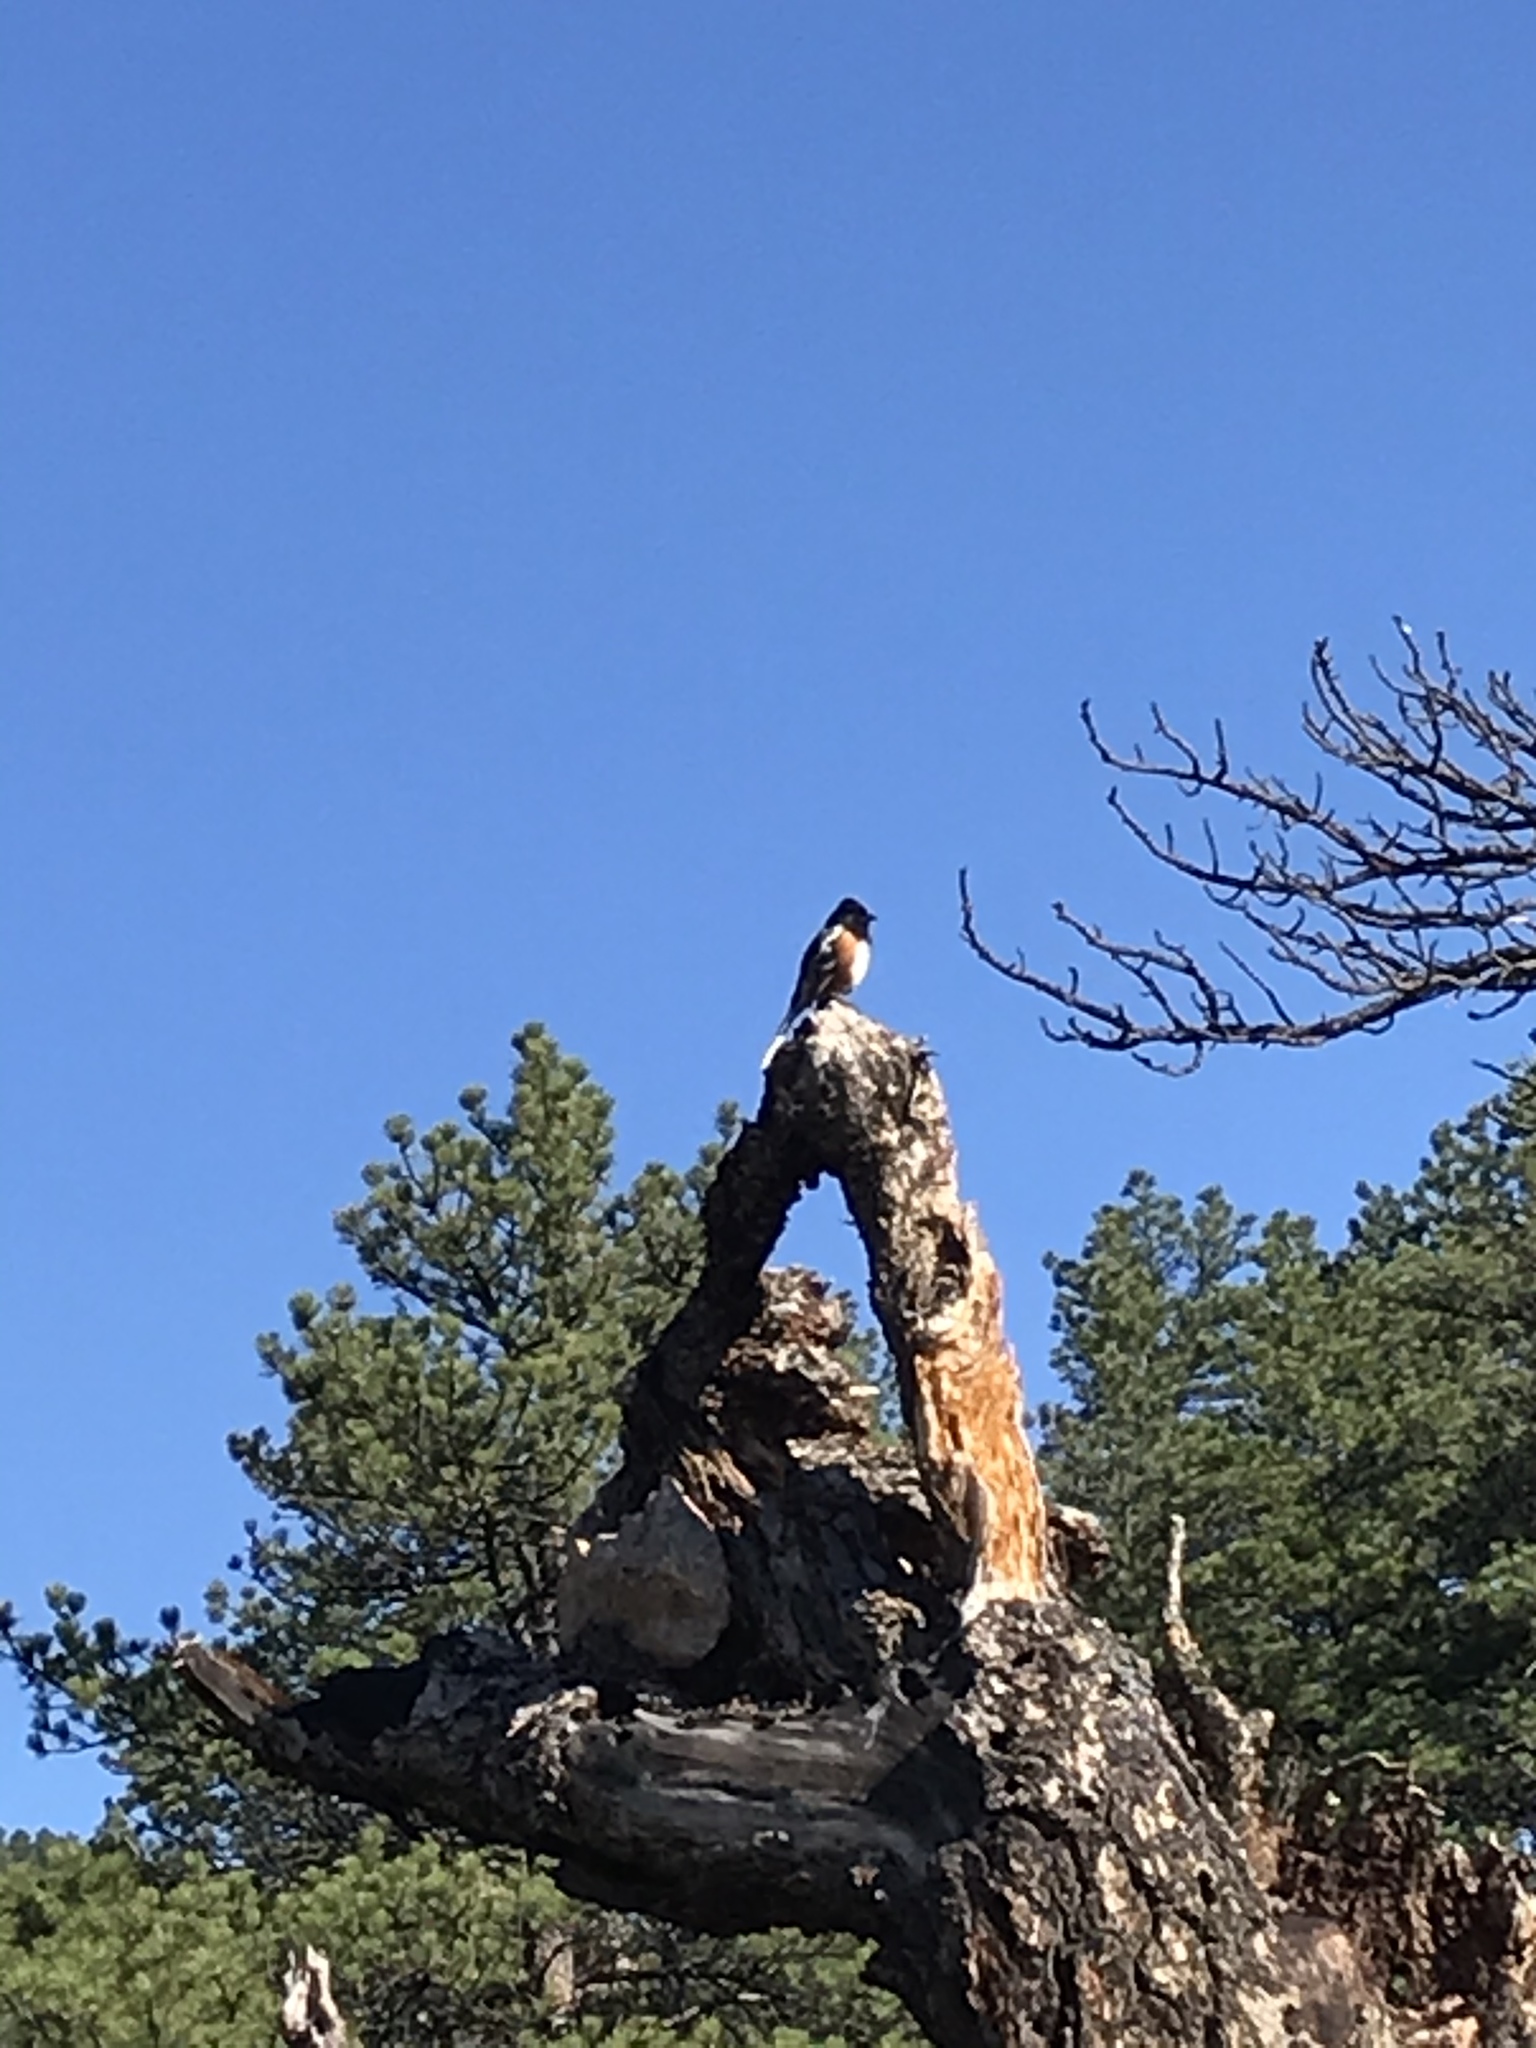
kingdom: Animalia
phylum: Chordata
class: Aves
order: Passeriformes
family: Passerellidae
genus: Pipilo
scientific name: Pipilo maculatus
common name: Spotted towhee
